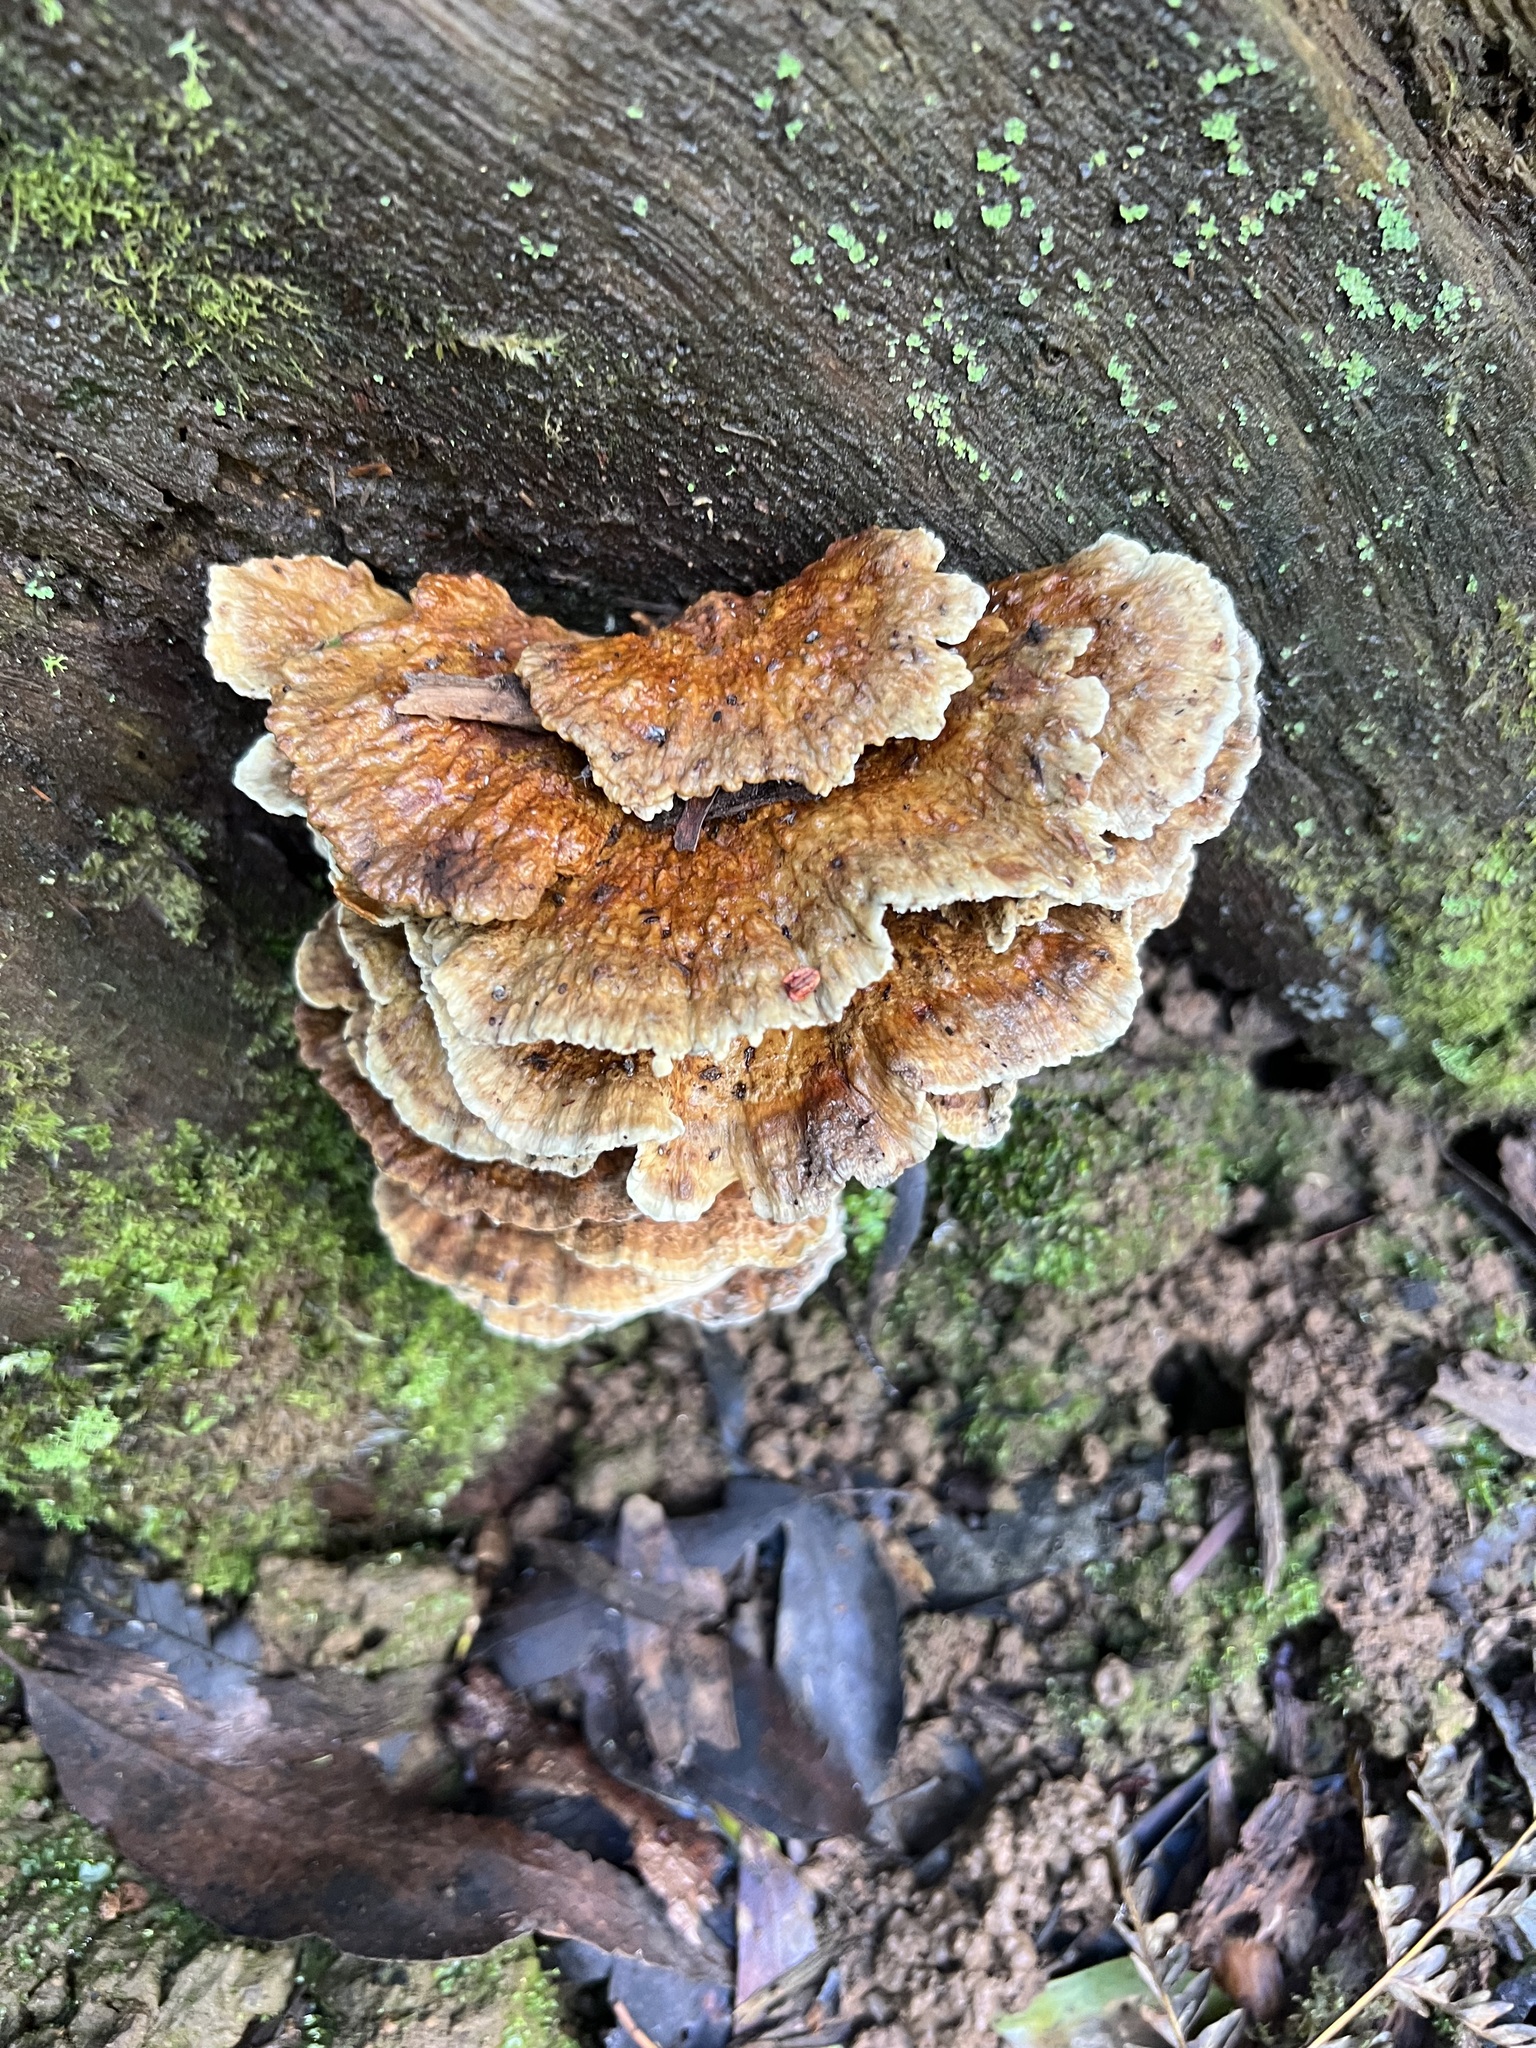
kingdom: Fungi
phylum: Basidiomycota
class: Agaricomycetes
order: Polyporales
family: Polyporaceae
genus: Ryvardenia
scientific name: Ryvardenia campyla
